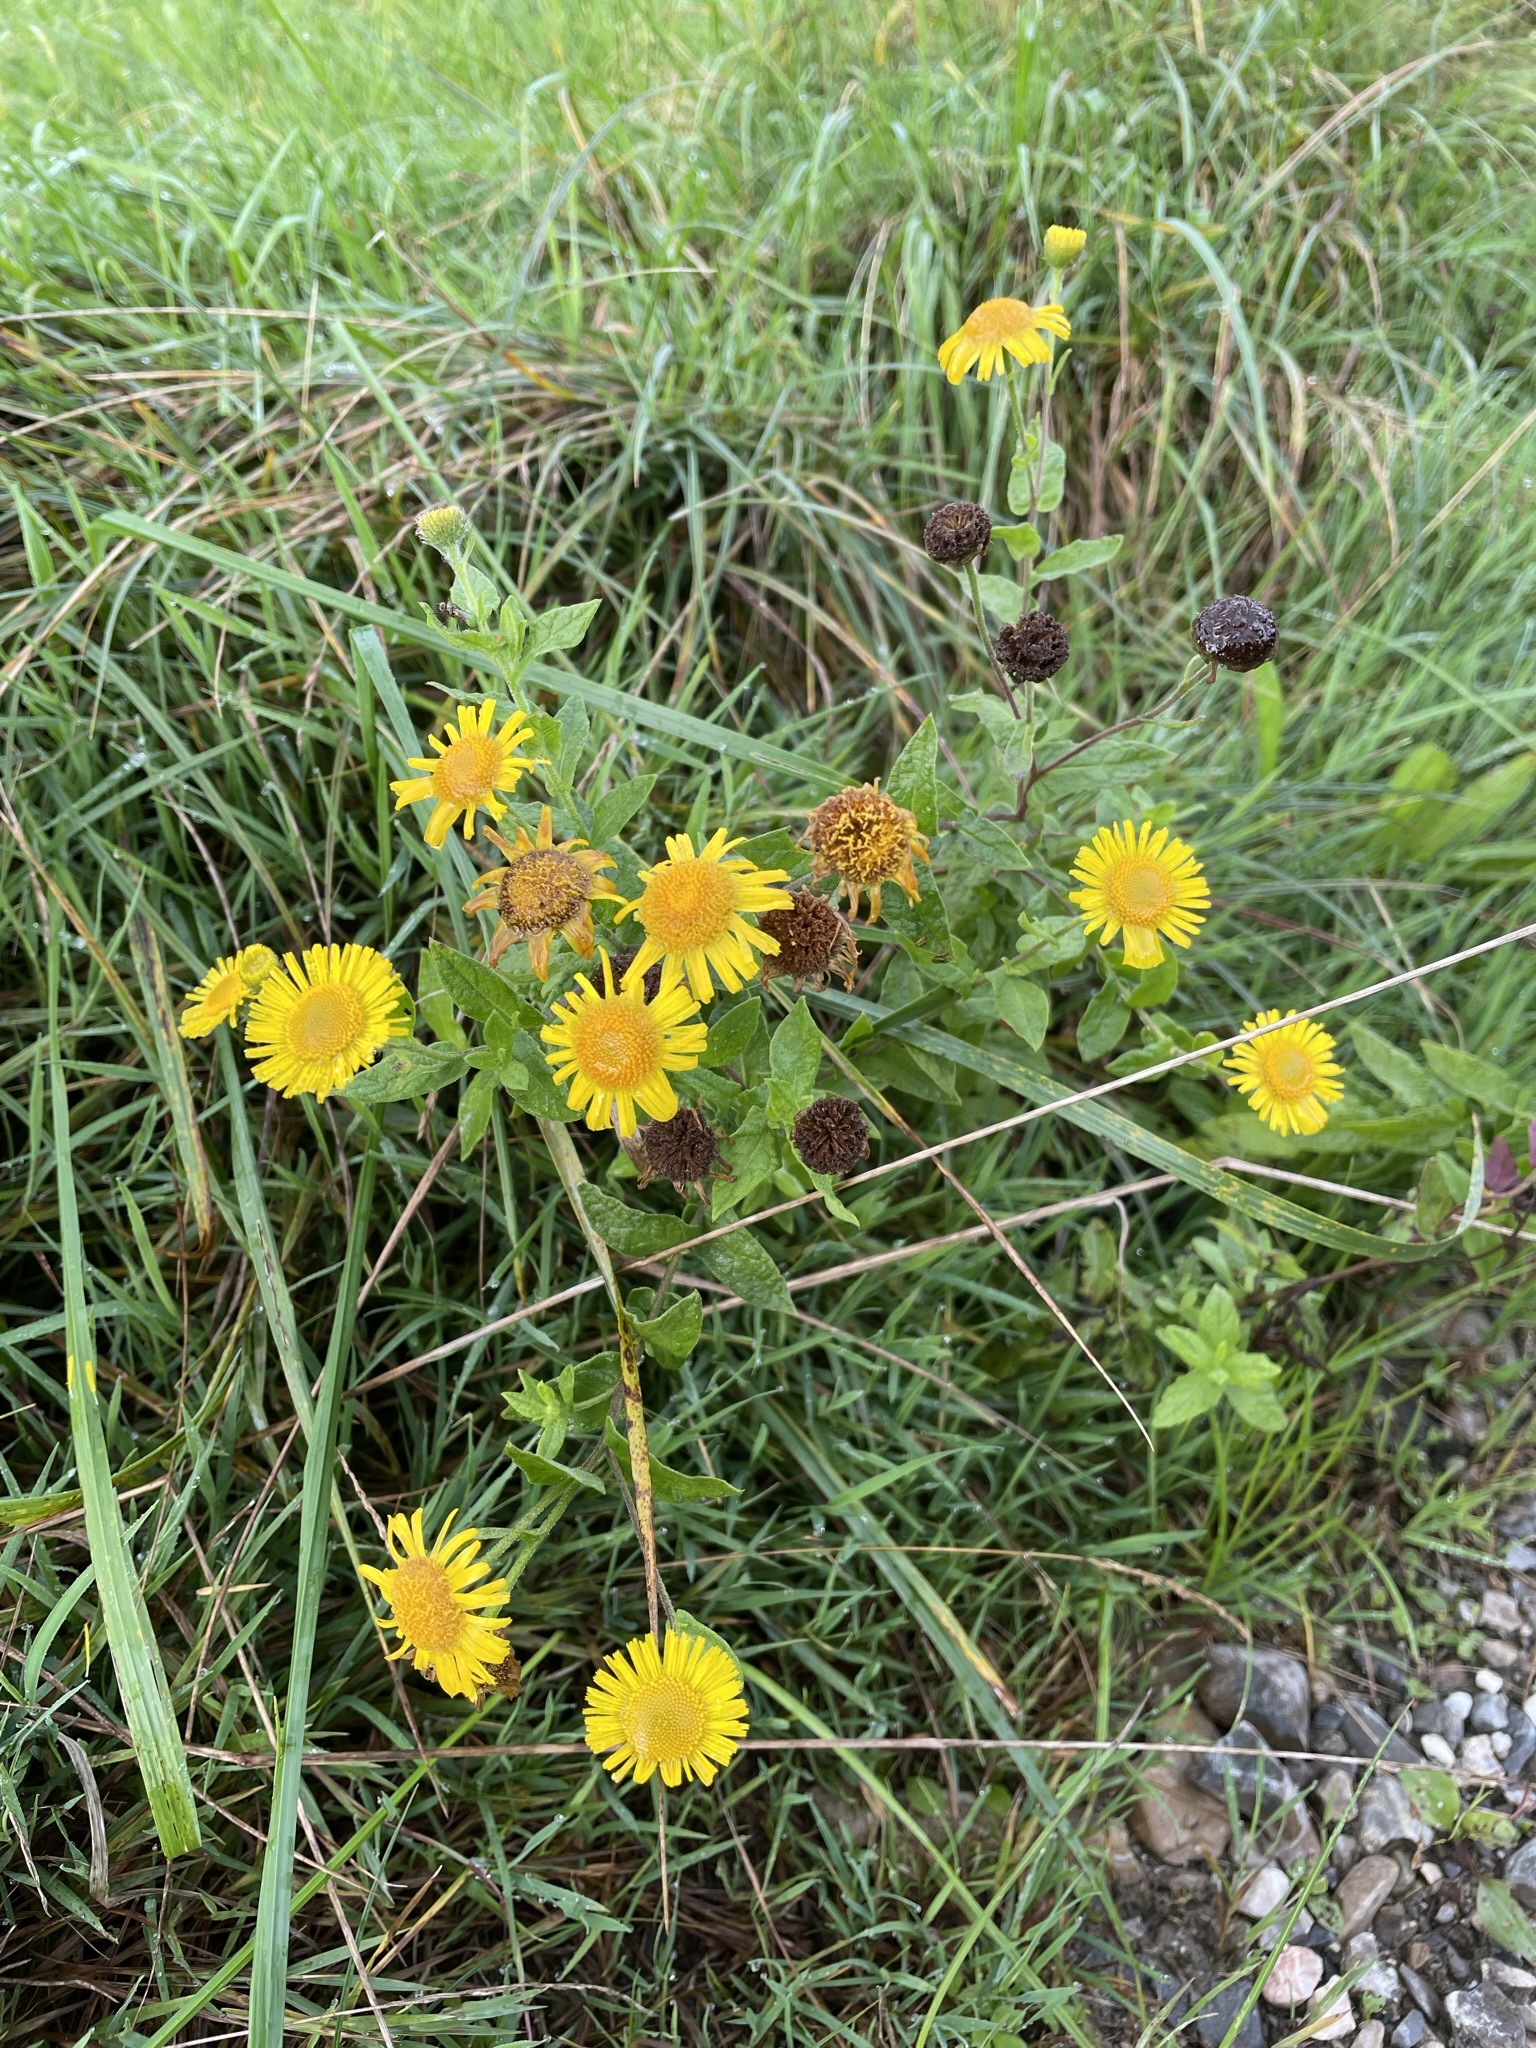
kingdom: Plantae
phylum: Tracheophyta
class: Magnoliopsida
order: Asterales
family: Asteraceae
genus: Pulicaria
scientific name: Pulicaria dysenterica
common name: Common fleabane
